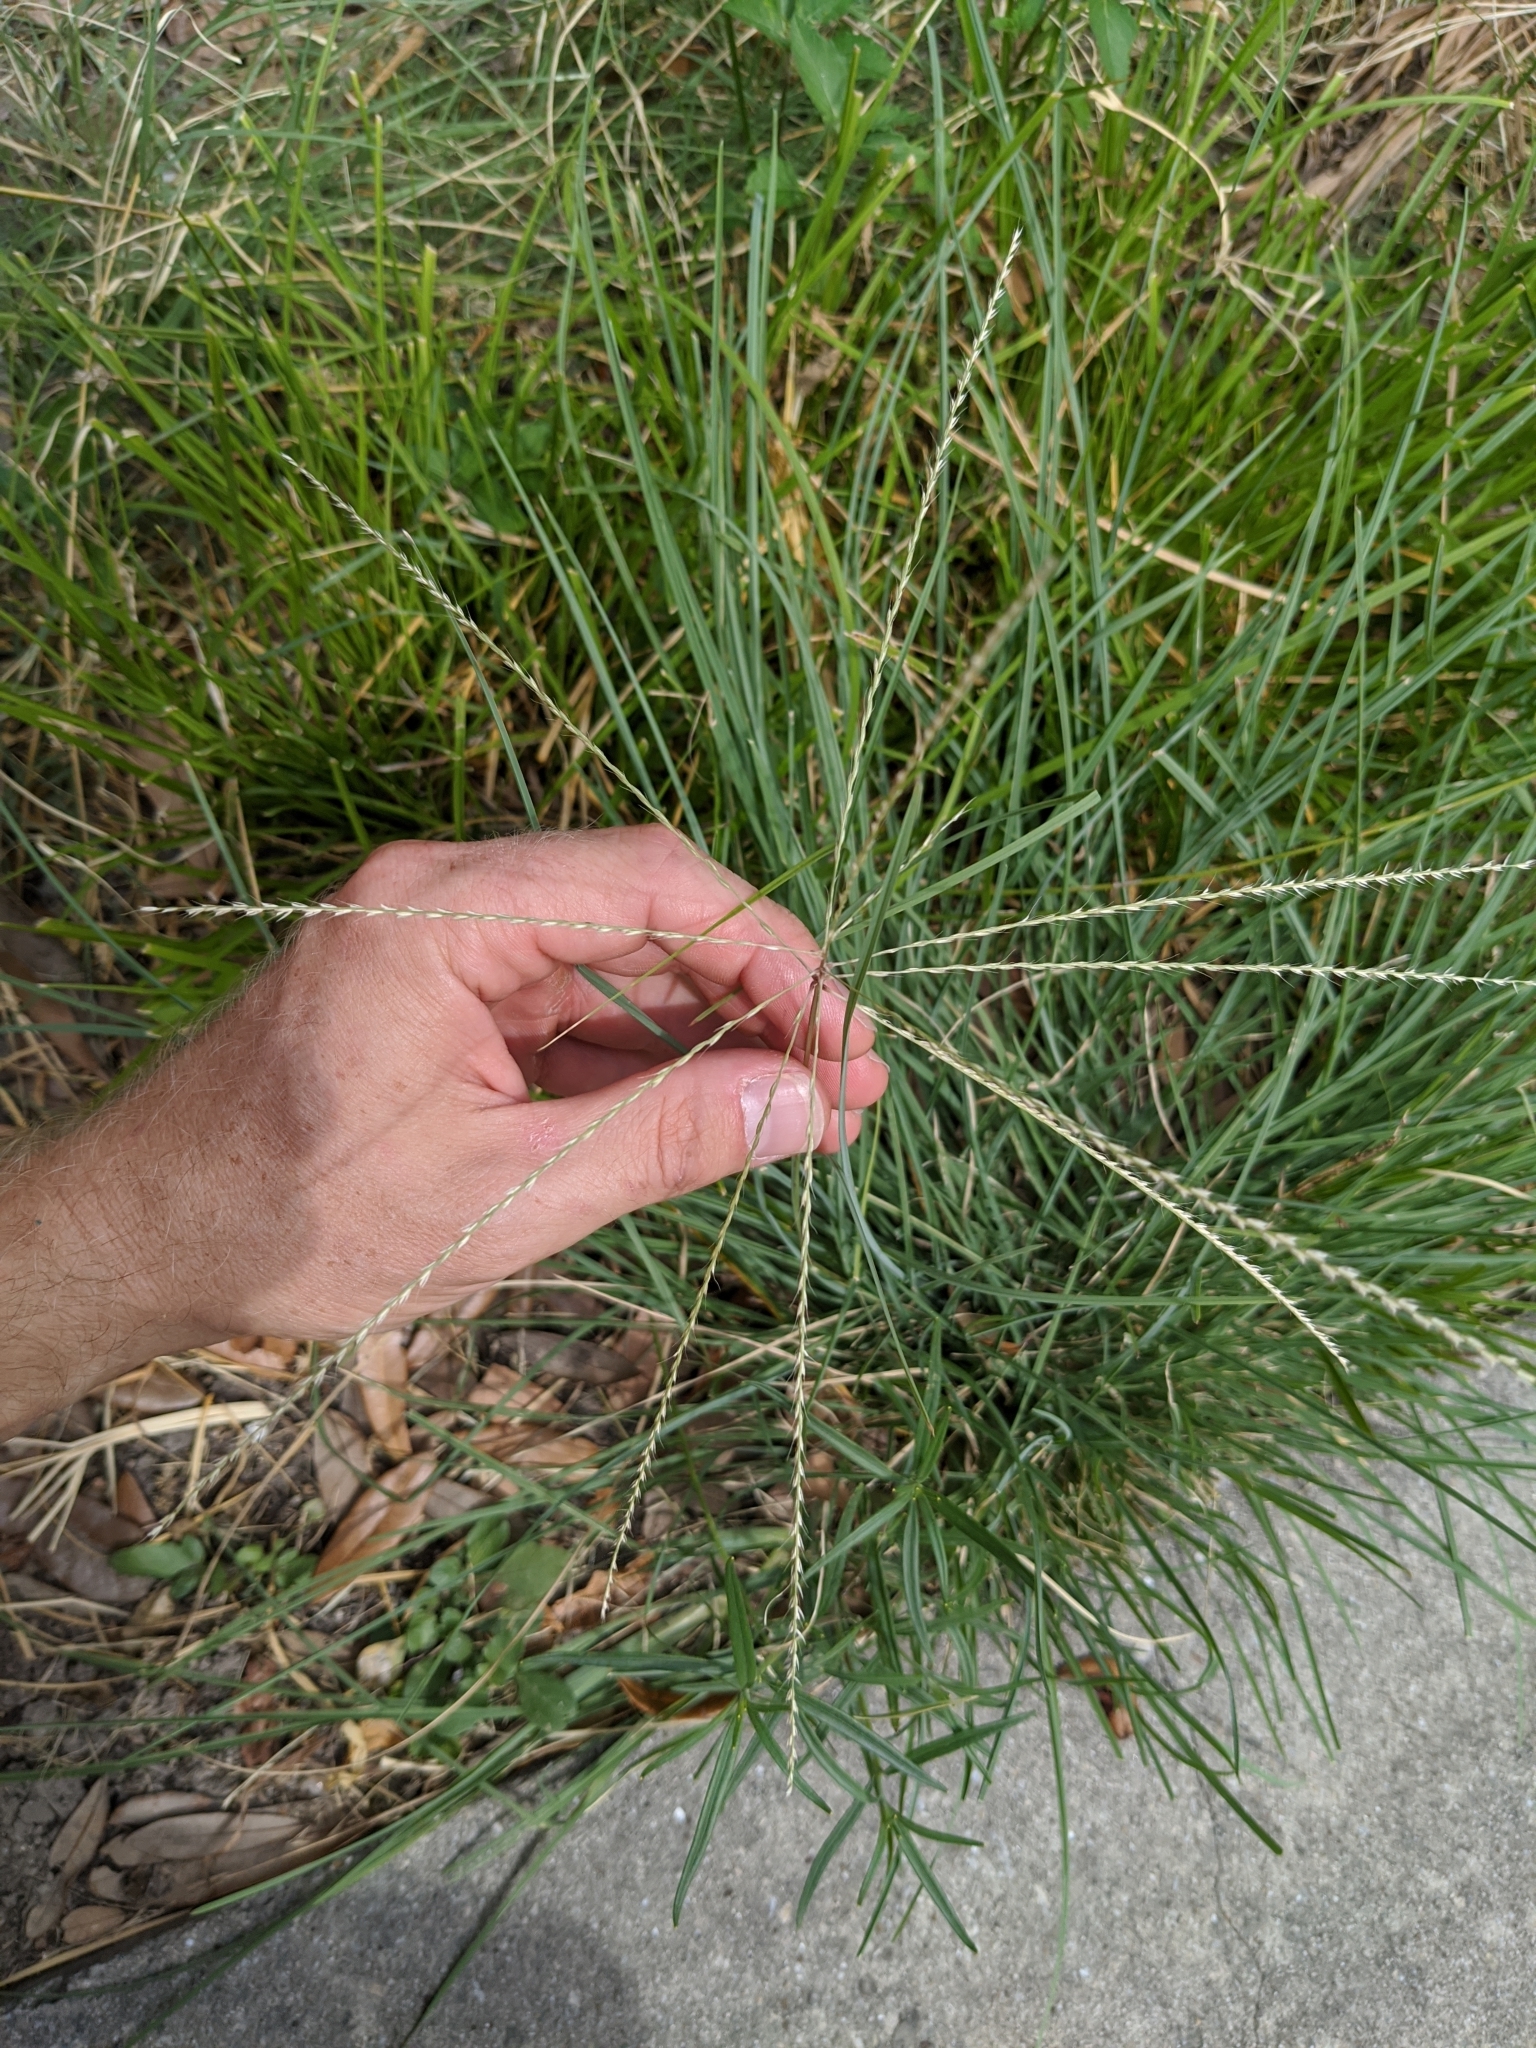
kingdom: Plantae
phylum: Tracheophyta
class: Liliopsida
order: Poales
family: Poaceae
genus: Chloris
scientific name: Chloris verticillata
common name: Tumble windmill grass
